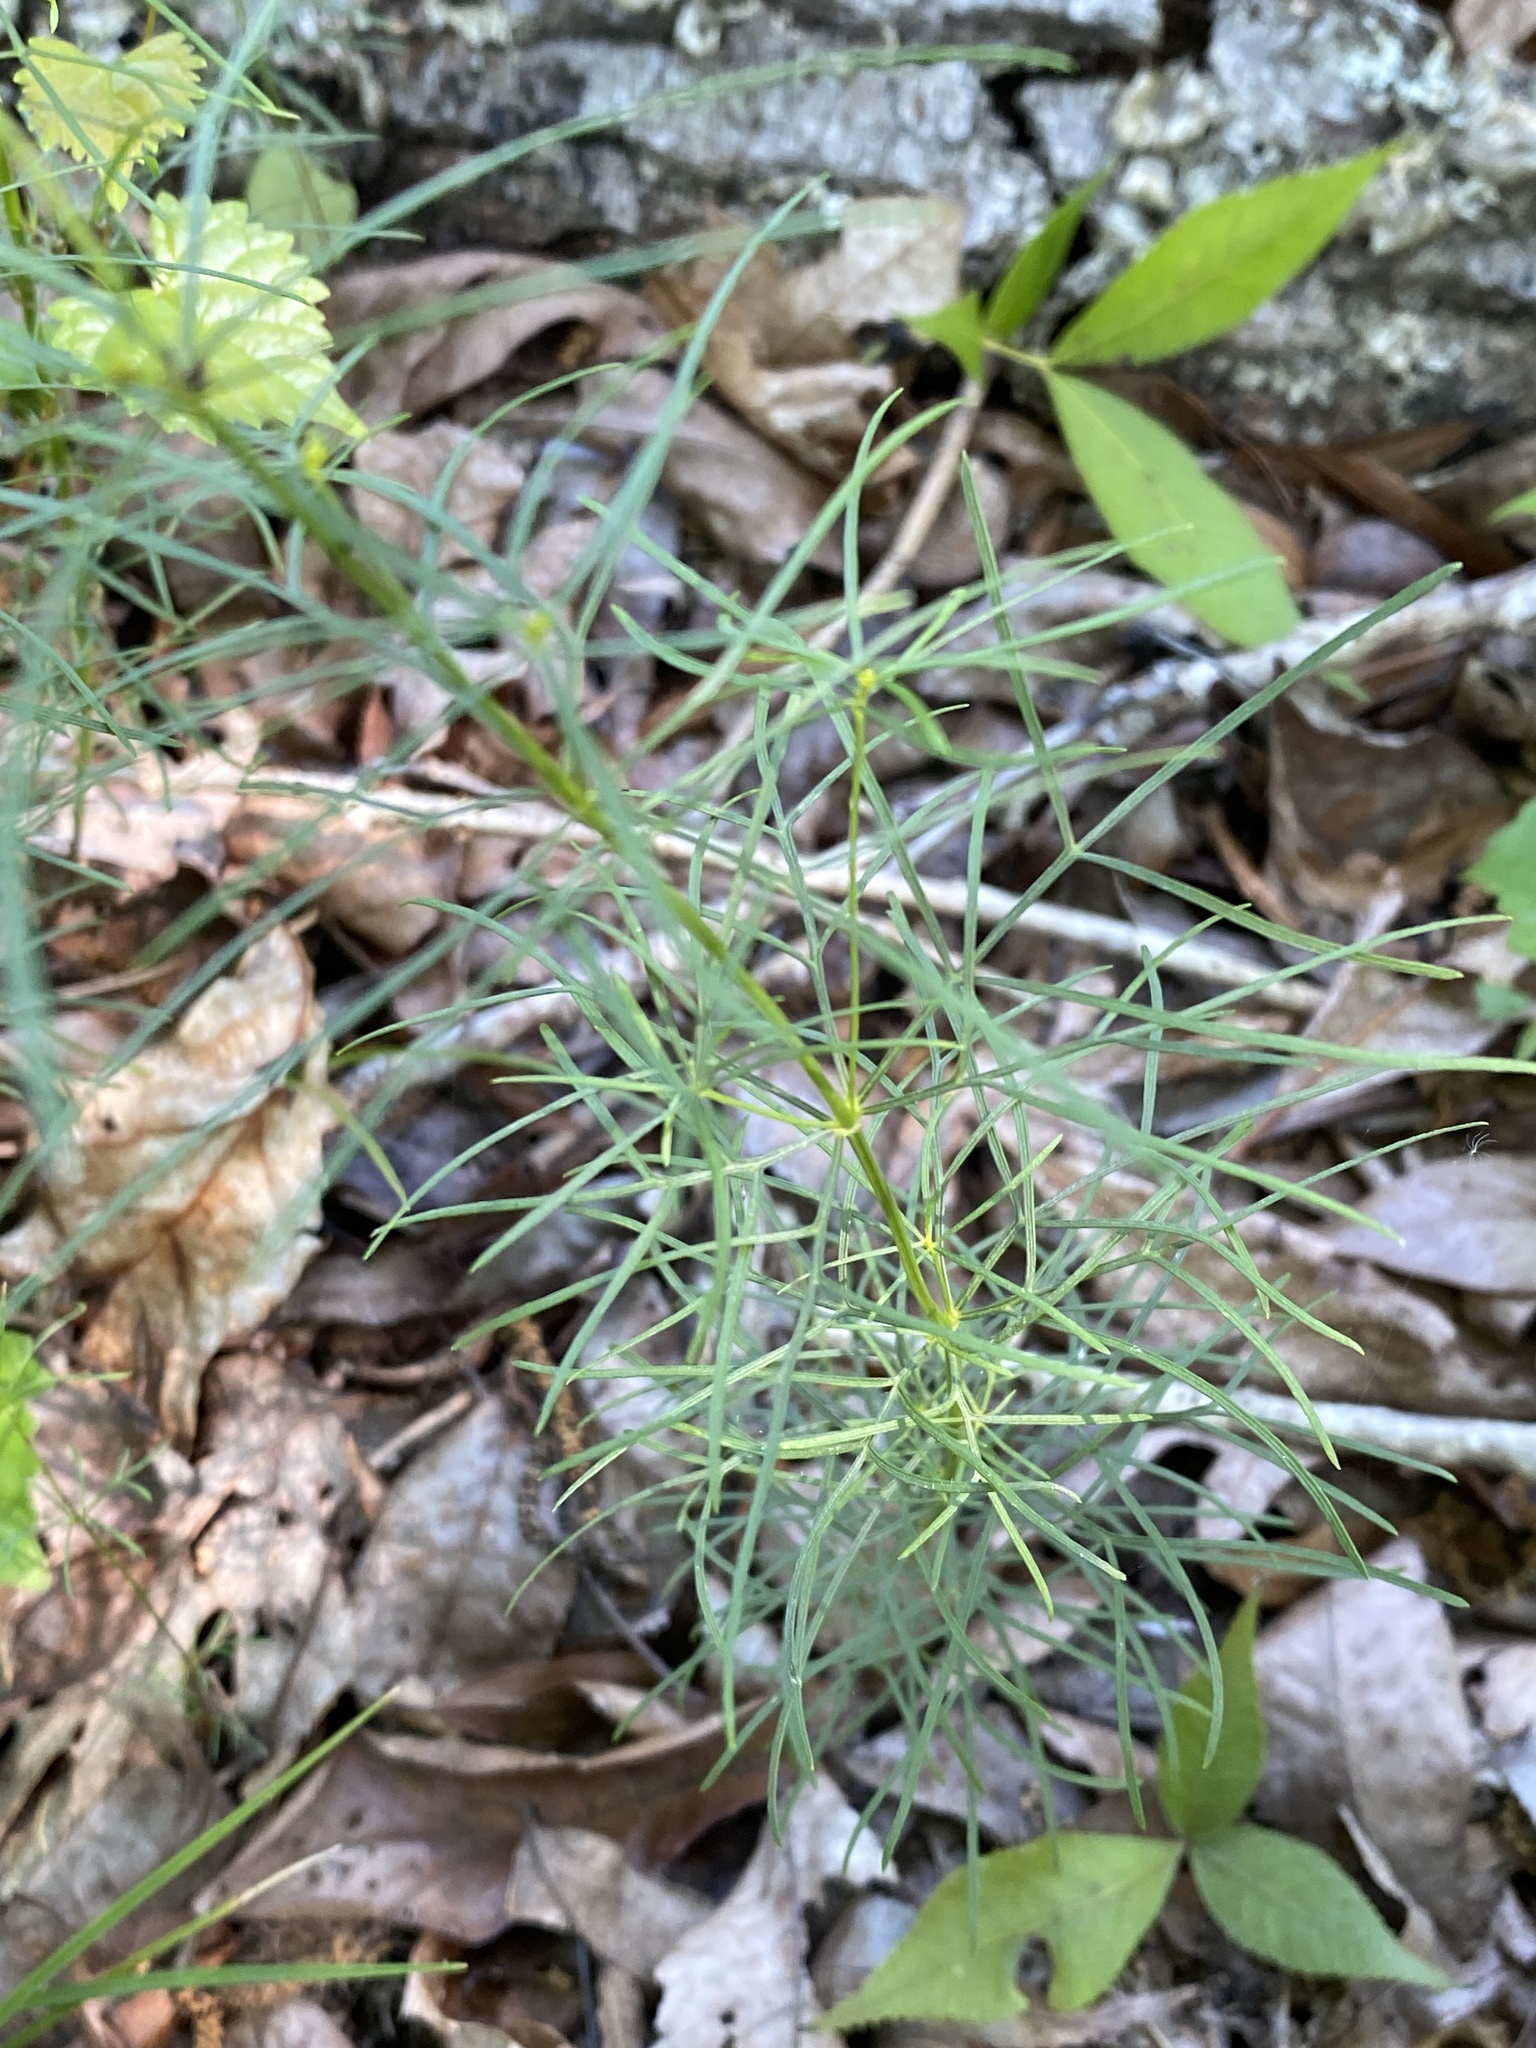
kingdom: Plantae
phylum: Tracheophyta
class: Magnoliopsida
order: Asterales
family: Asteraceae
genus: Coreopsis
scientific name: Coreopsis verticillata
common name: Whorled tickseed
